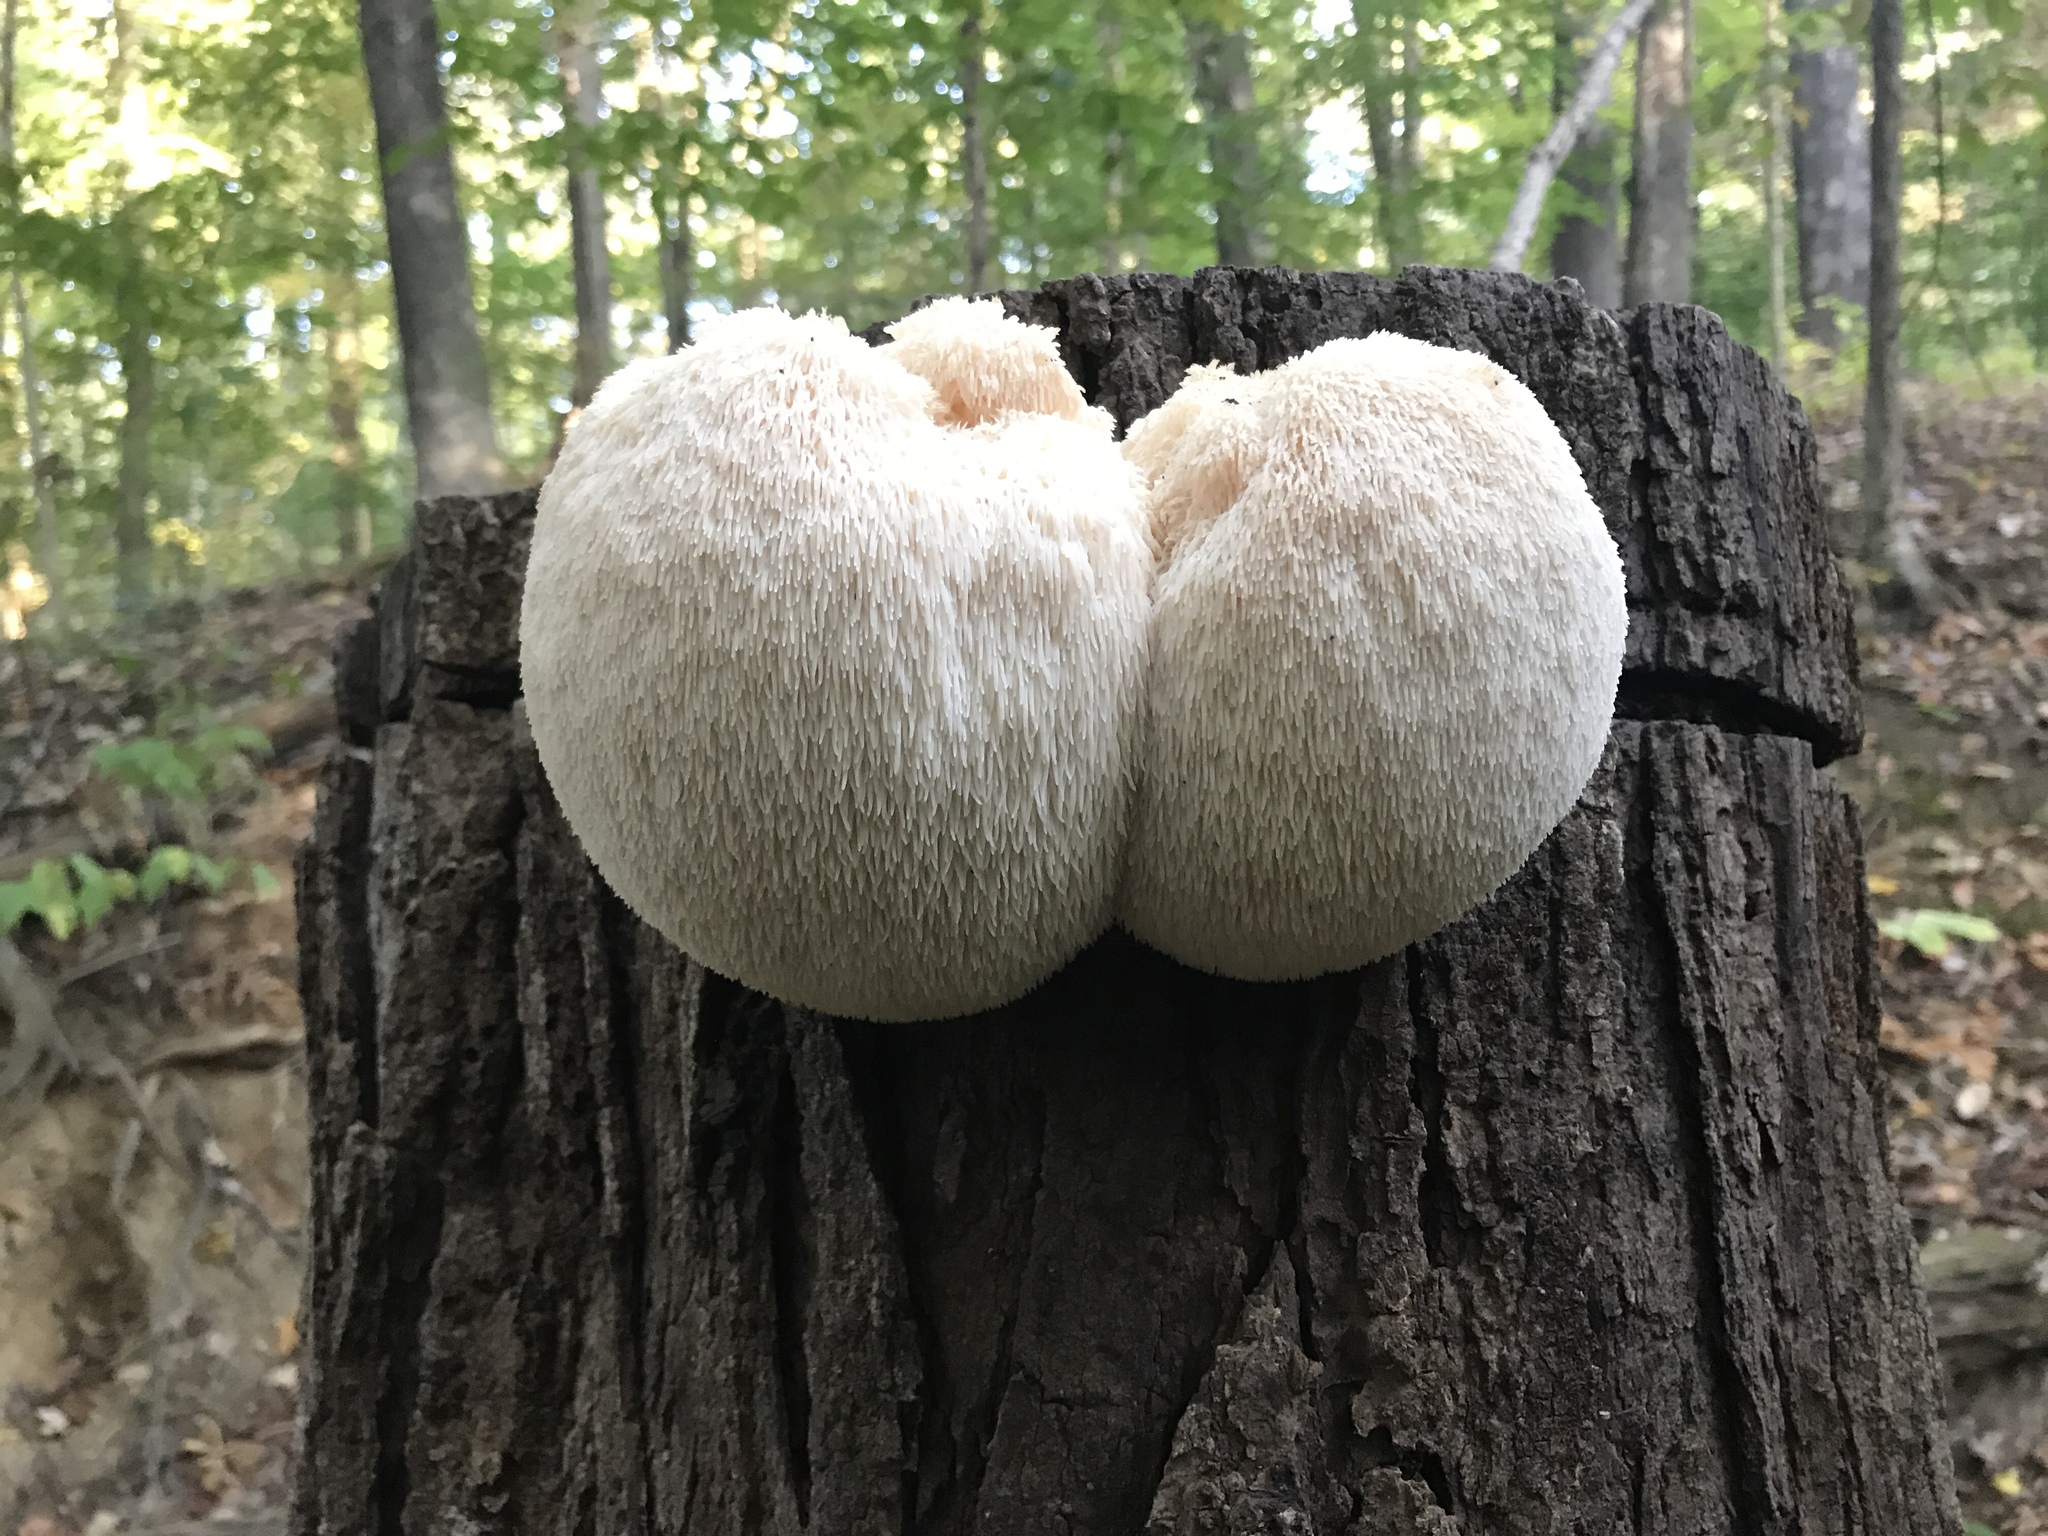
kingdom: Fungi
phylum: Basidiomycota
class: Agaricomycetes
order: Russulales
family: Hericiaceae
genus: Hericium
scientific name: Hericium erinaceus
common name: Bearded tooth
